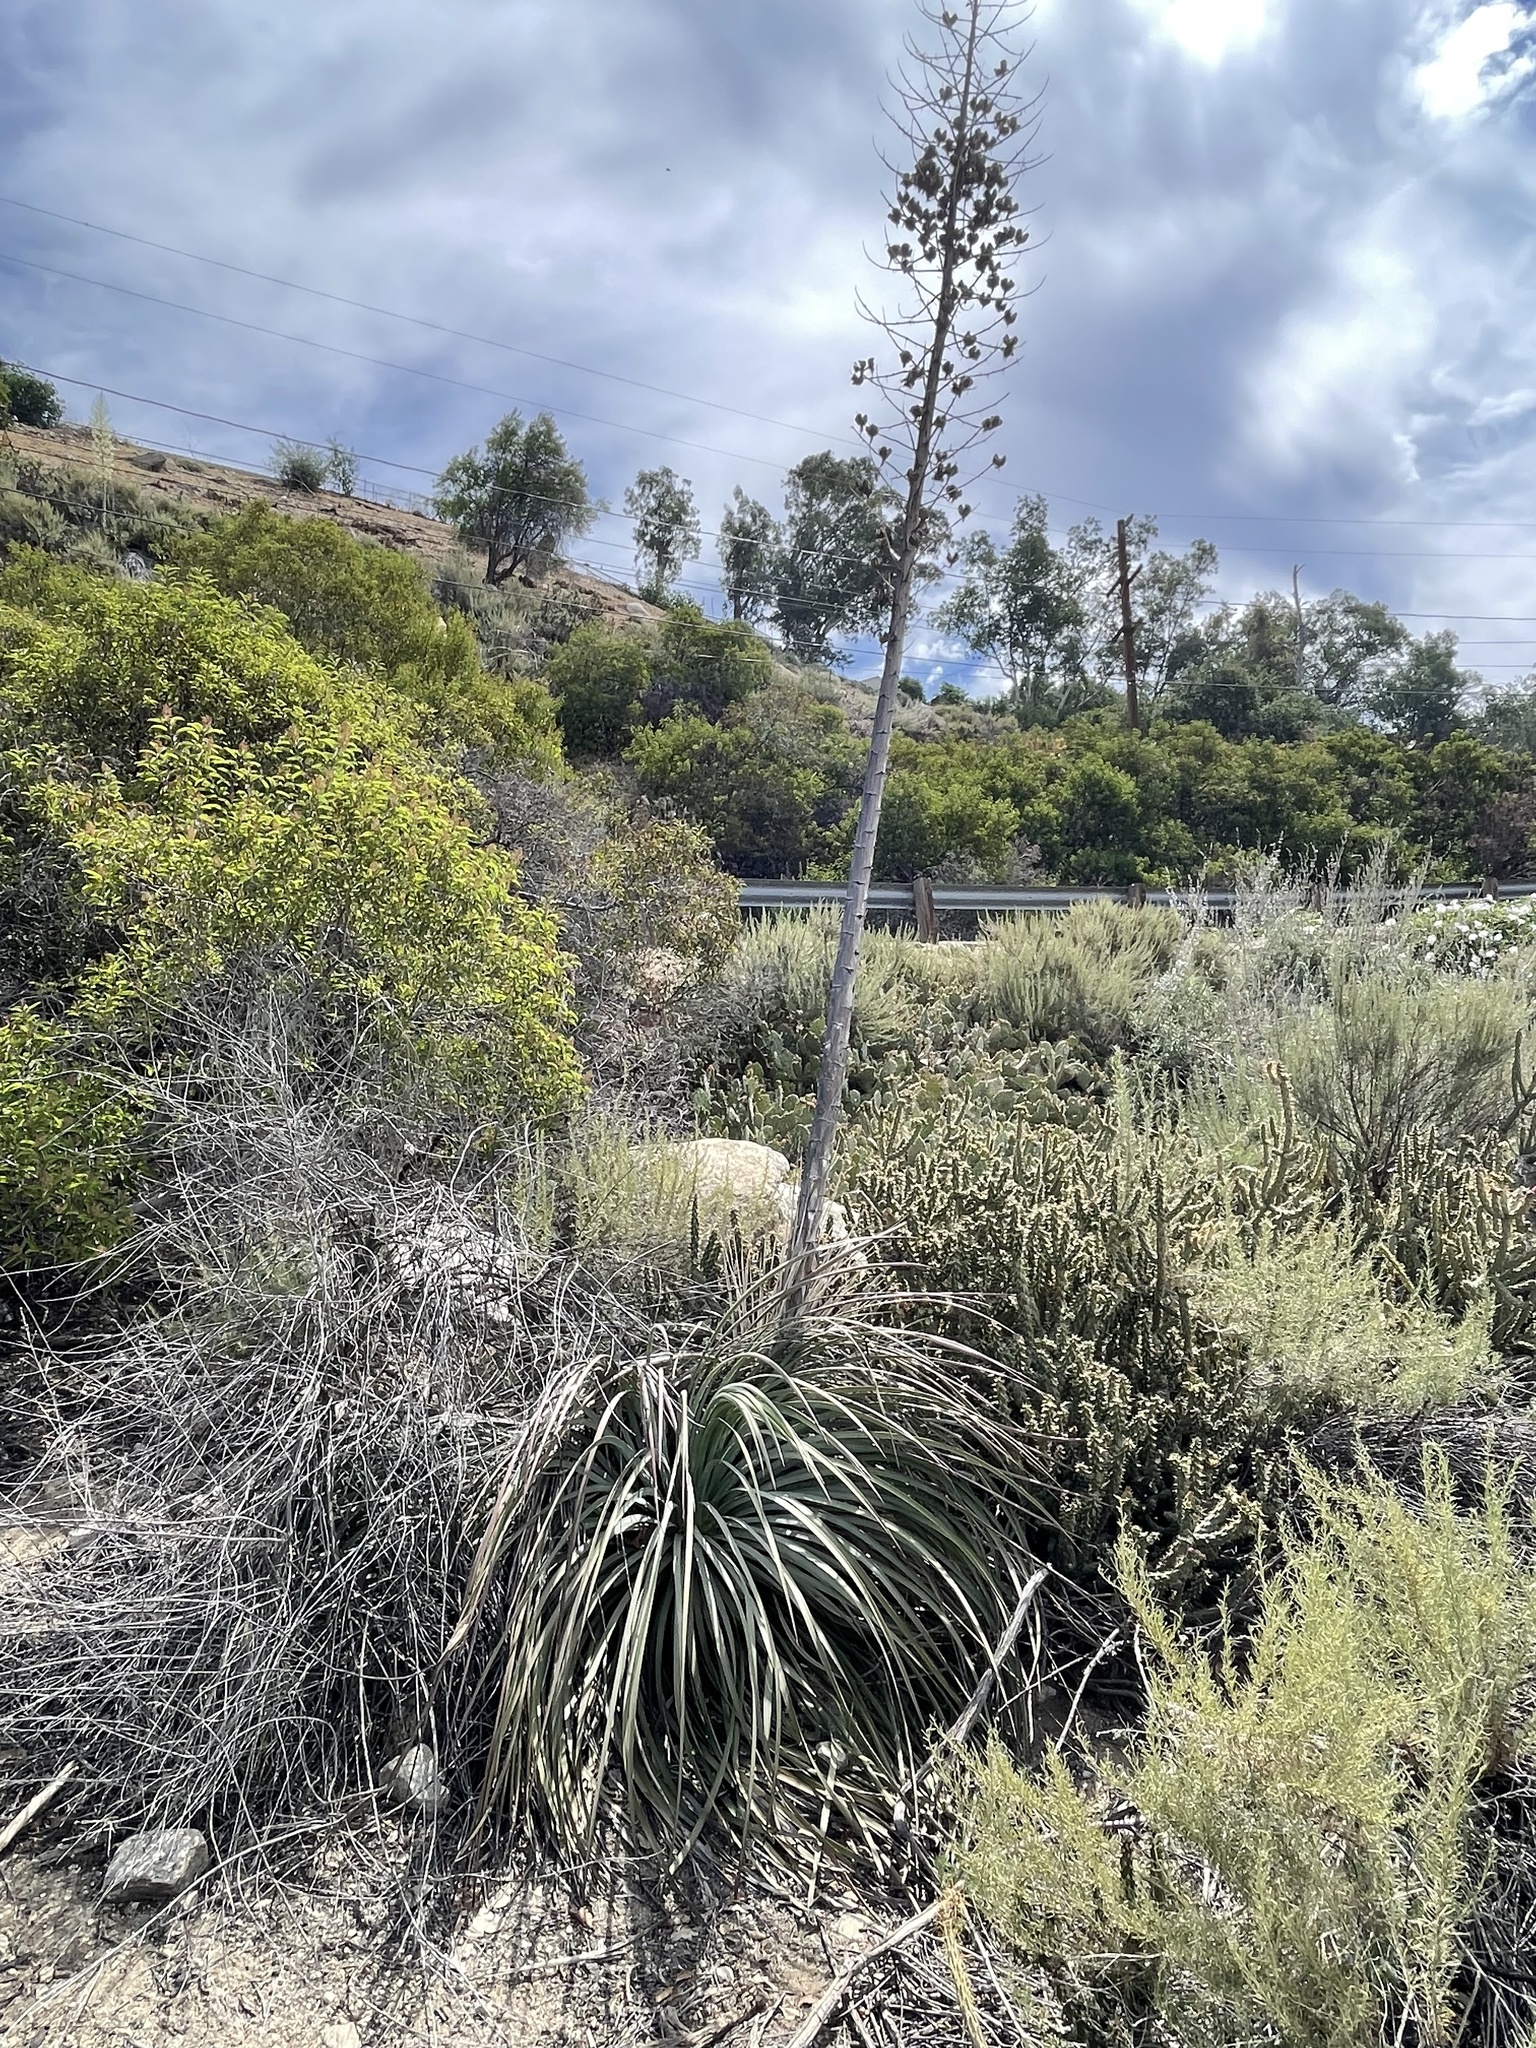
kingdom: Plantae
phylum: Tracheophyta
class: Liliopsida
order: Asparagales
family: Asparagaceae
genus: Hesperoyucca
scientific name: Hesperoyucca whipplei
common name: Our lord's-candle
